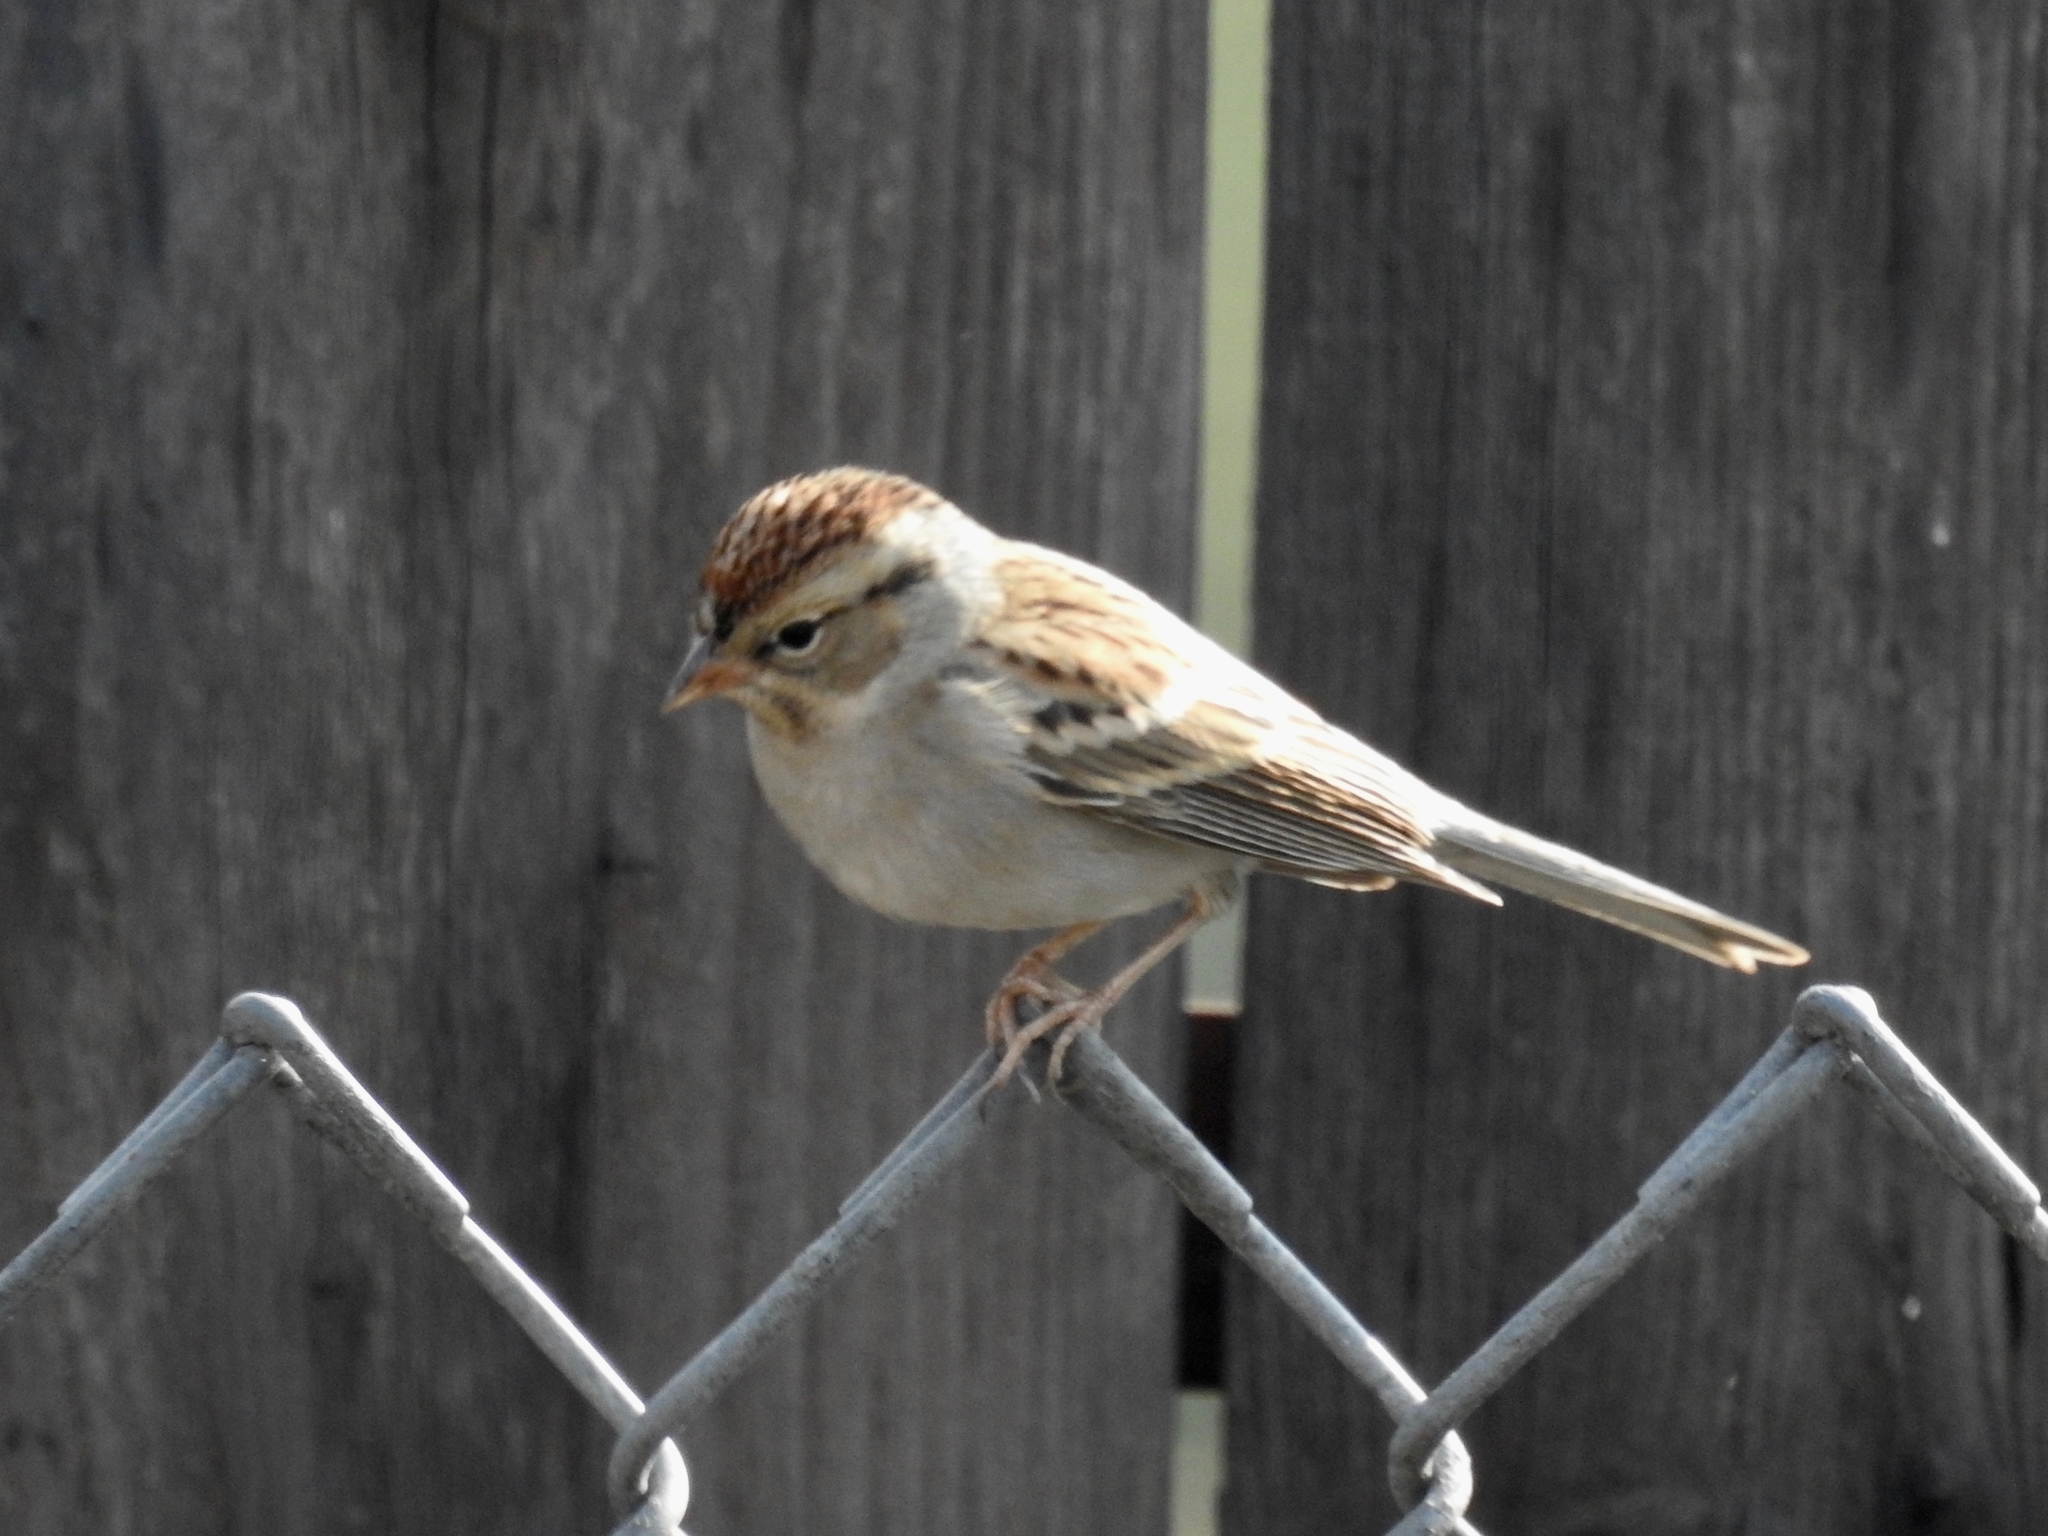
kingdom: Animalia
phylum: Chordata
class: Aves
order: Passeriformes
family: Passerellidae
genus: Spizella
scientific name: Spizella passerina
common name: Chipping sparrow
